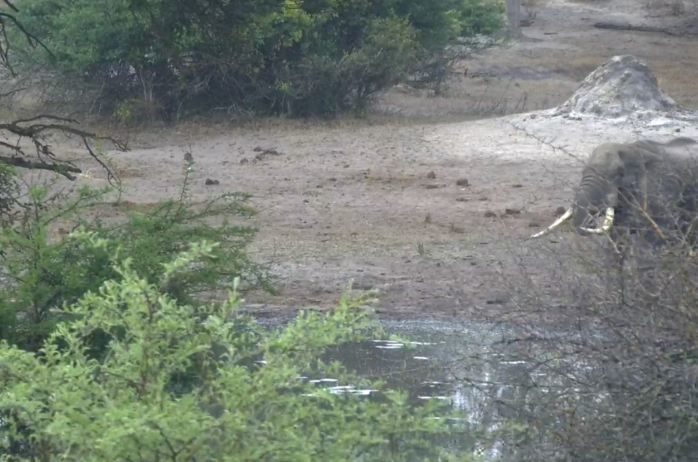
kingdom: Animalia
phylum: Chordata
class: Mammalia
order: Proboscidea
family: Elephantidae
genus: Loxodonta
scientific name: Loxodonta africana
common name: African elephant
